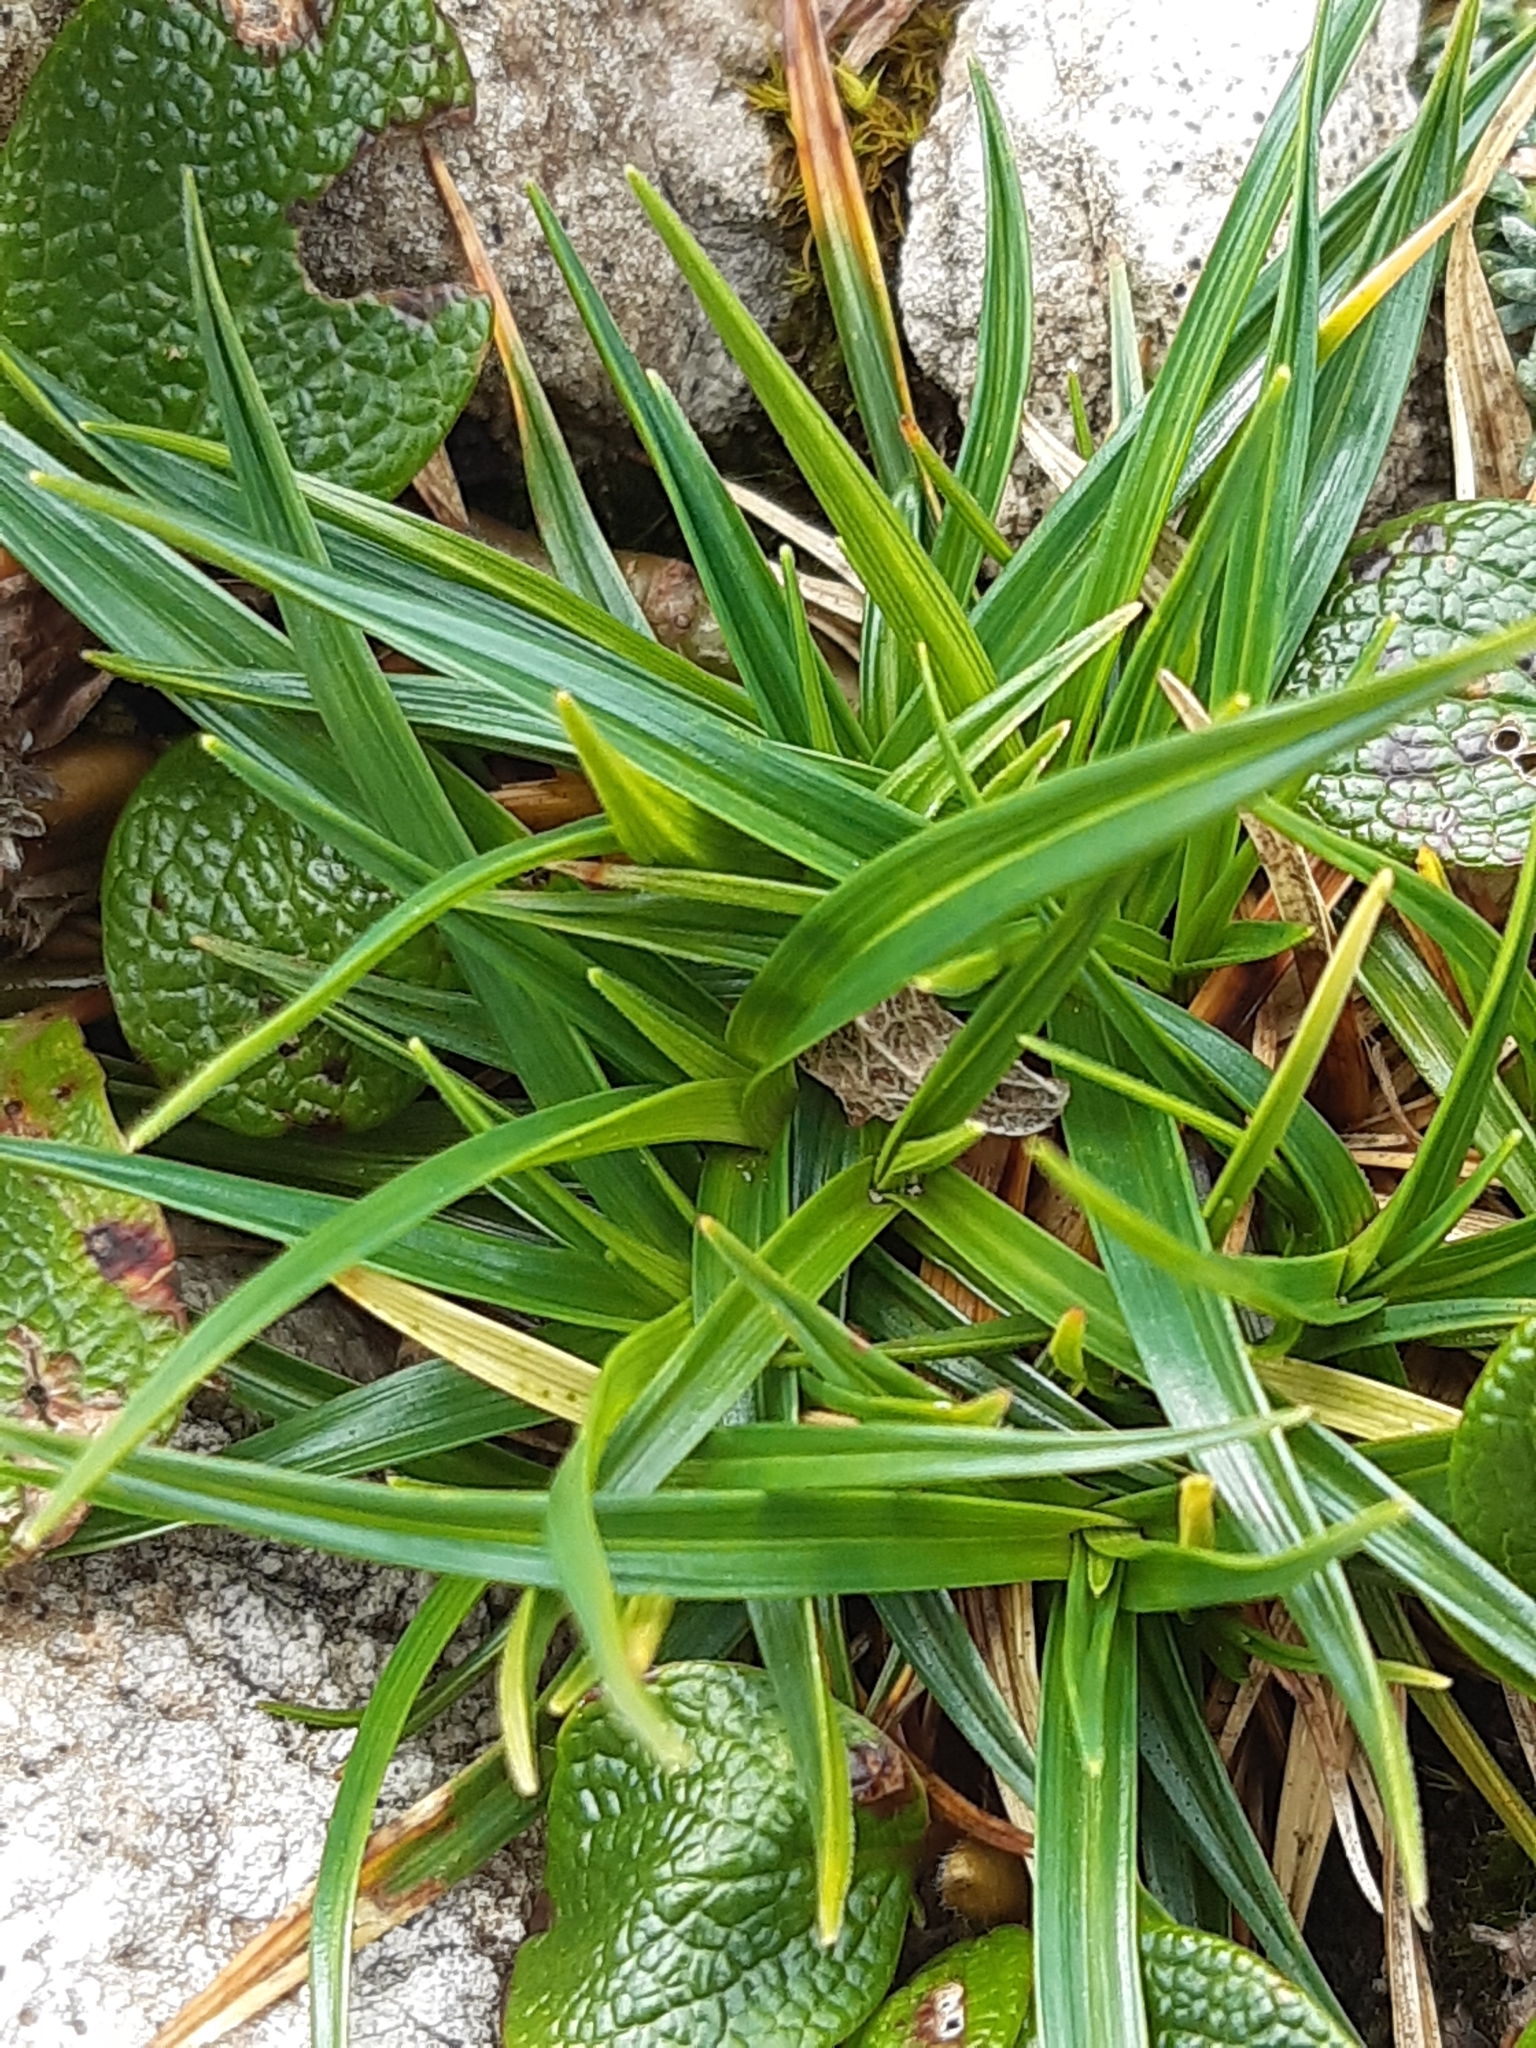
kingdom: Plantae
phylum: Tracheophyta
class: Liliopsida
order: Poales
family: Cyperaceae
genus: Carex
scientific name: Carex firma
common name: Dwarf pillow sedge
